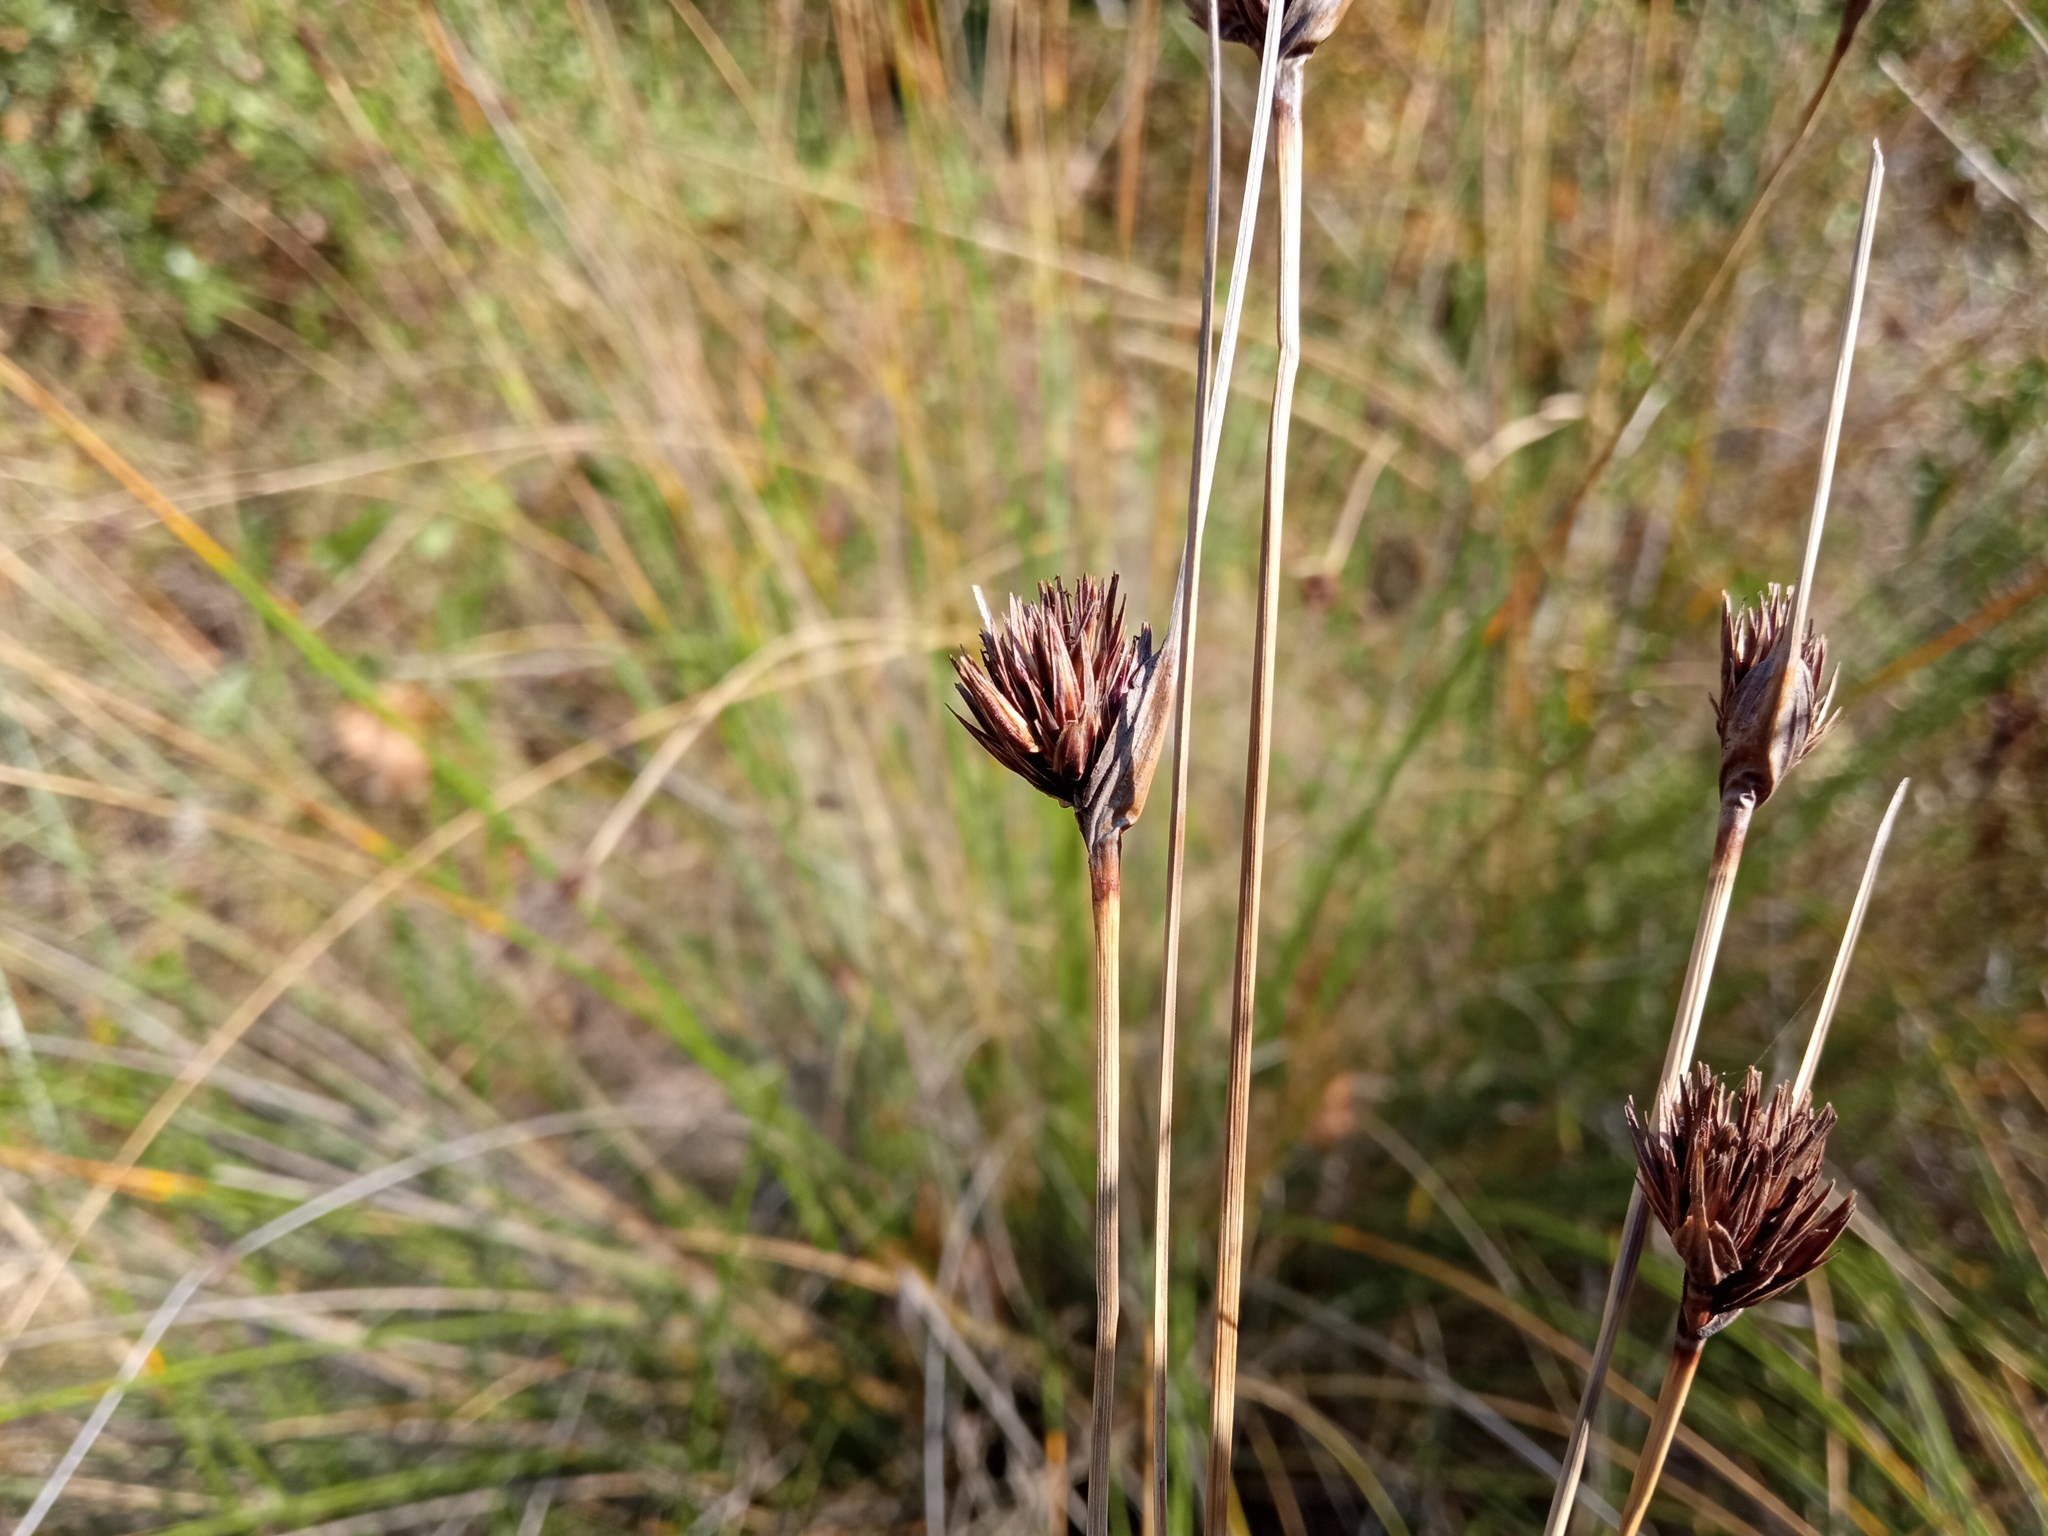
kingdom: Plantae
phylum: Tracheophyta
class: Liliopsida
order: Poales
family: Cyperaceae
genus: Schoenus
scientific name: Schoenus nigricans
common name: Black bog-rush
